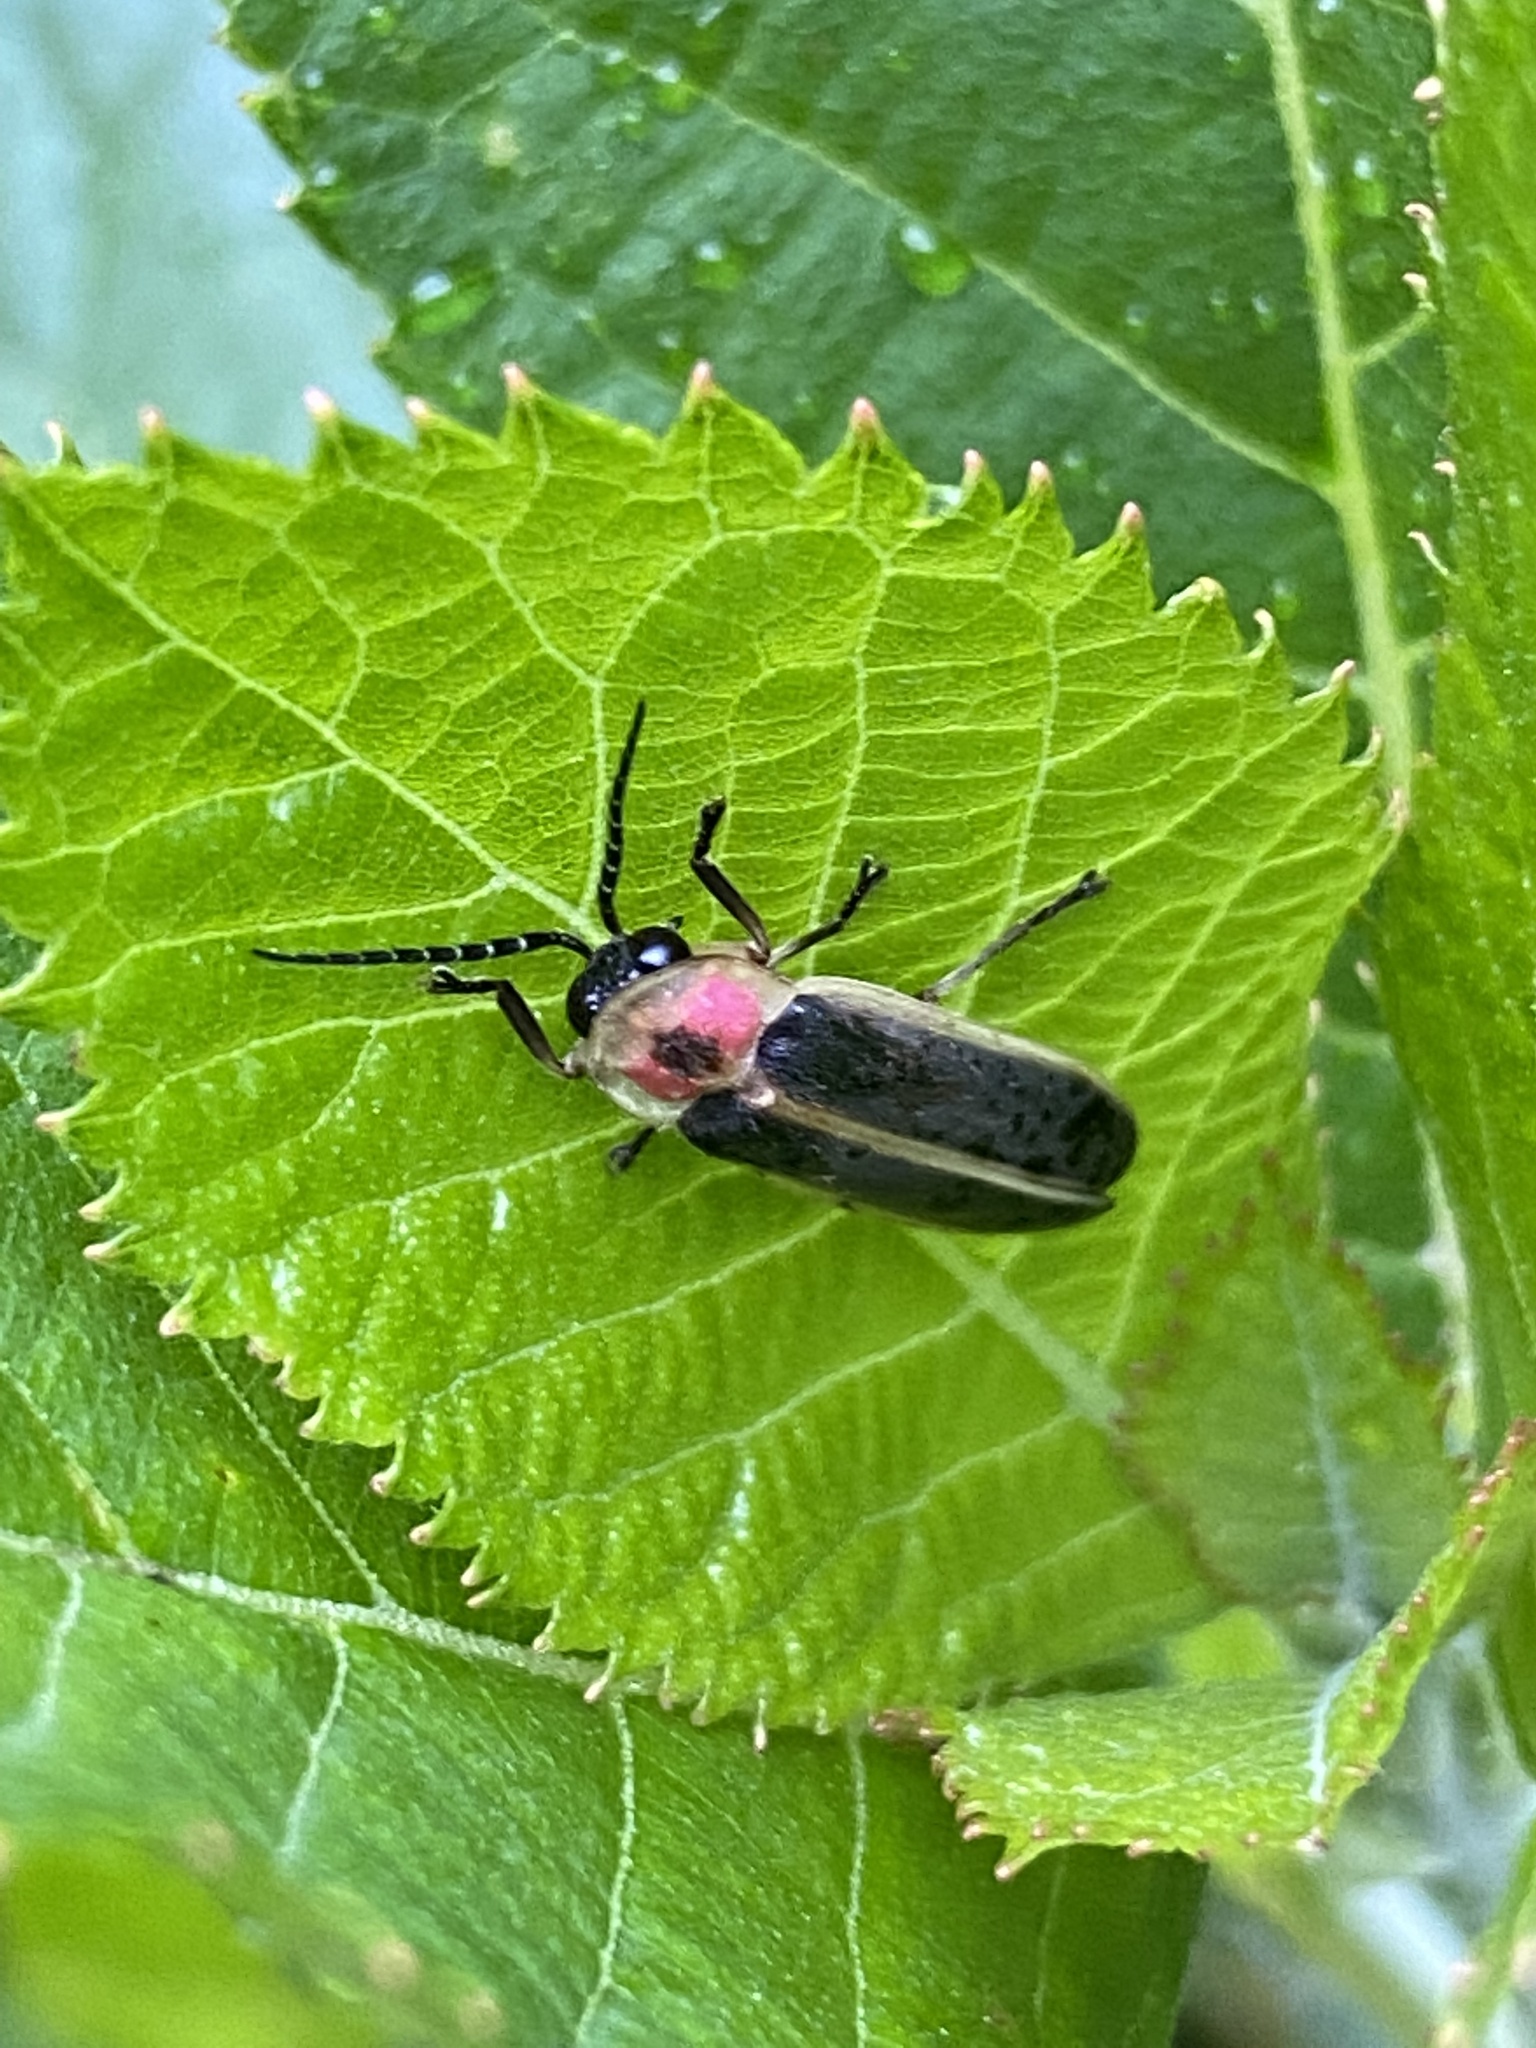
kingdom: Animalia
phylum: Arthropoda
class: Insecta
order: Coleoptera
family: Lampyridae
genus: Photinus
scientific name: Photinus pyralis
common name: Big dipper firefly
